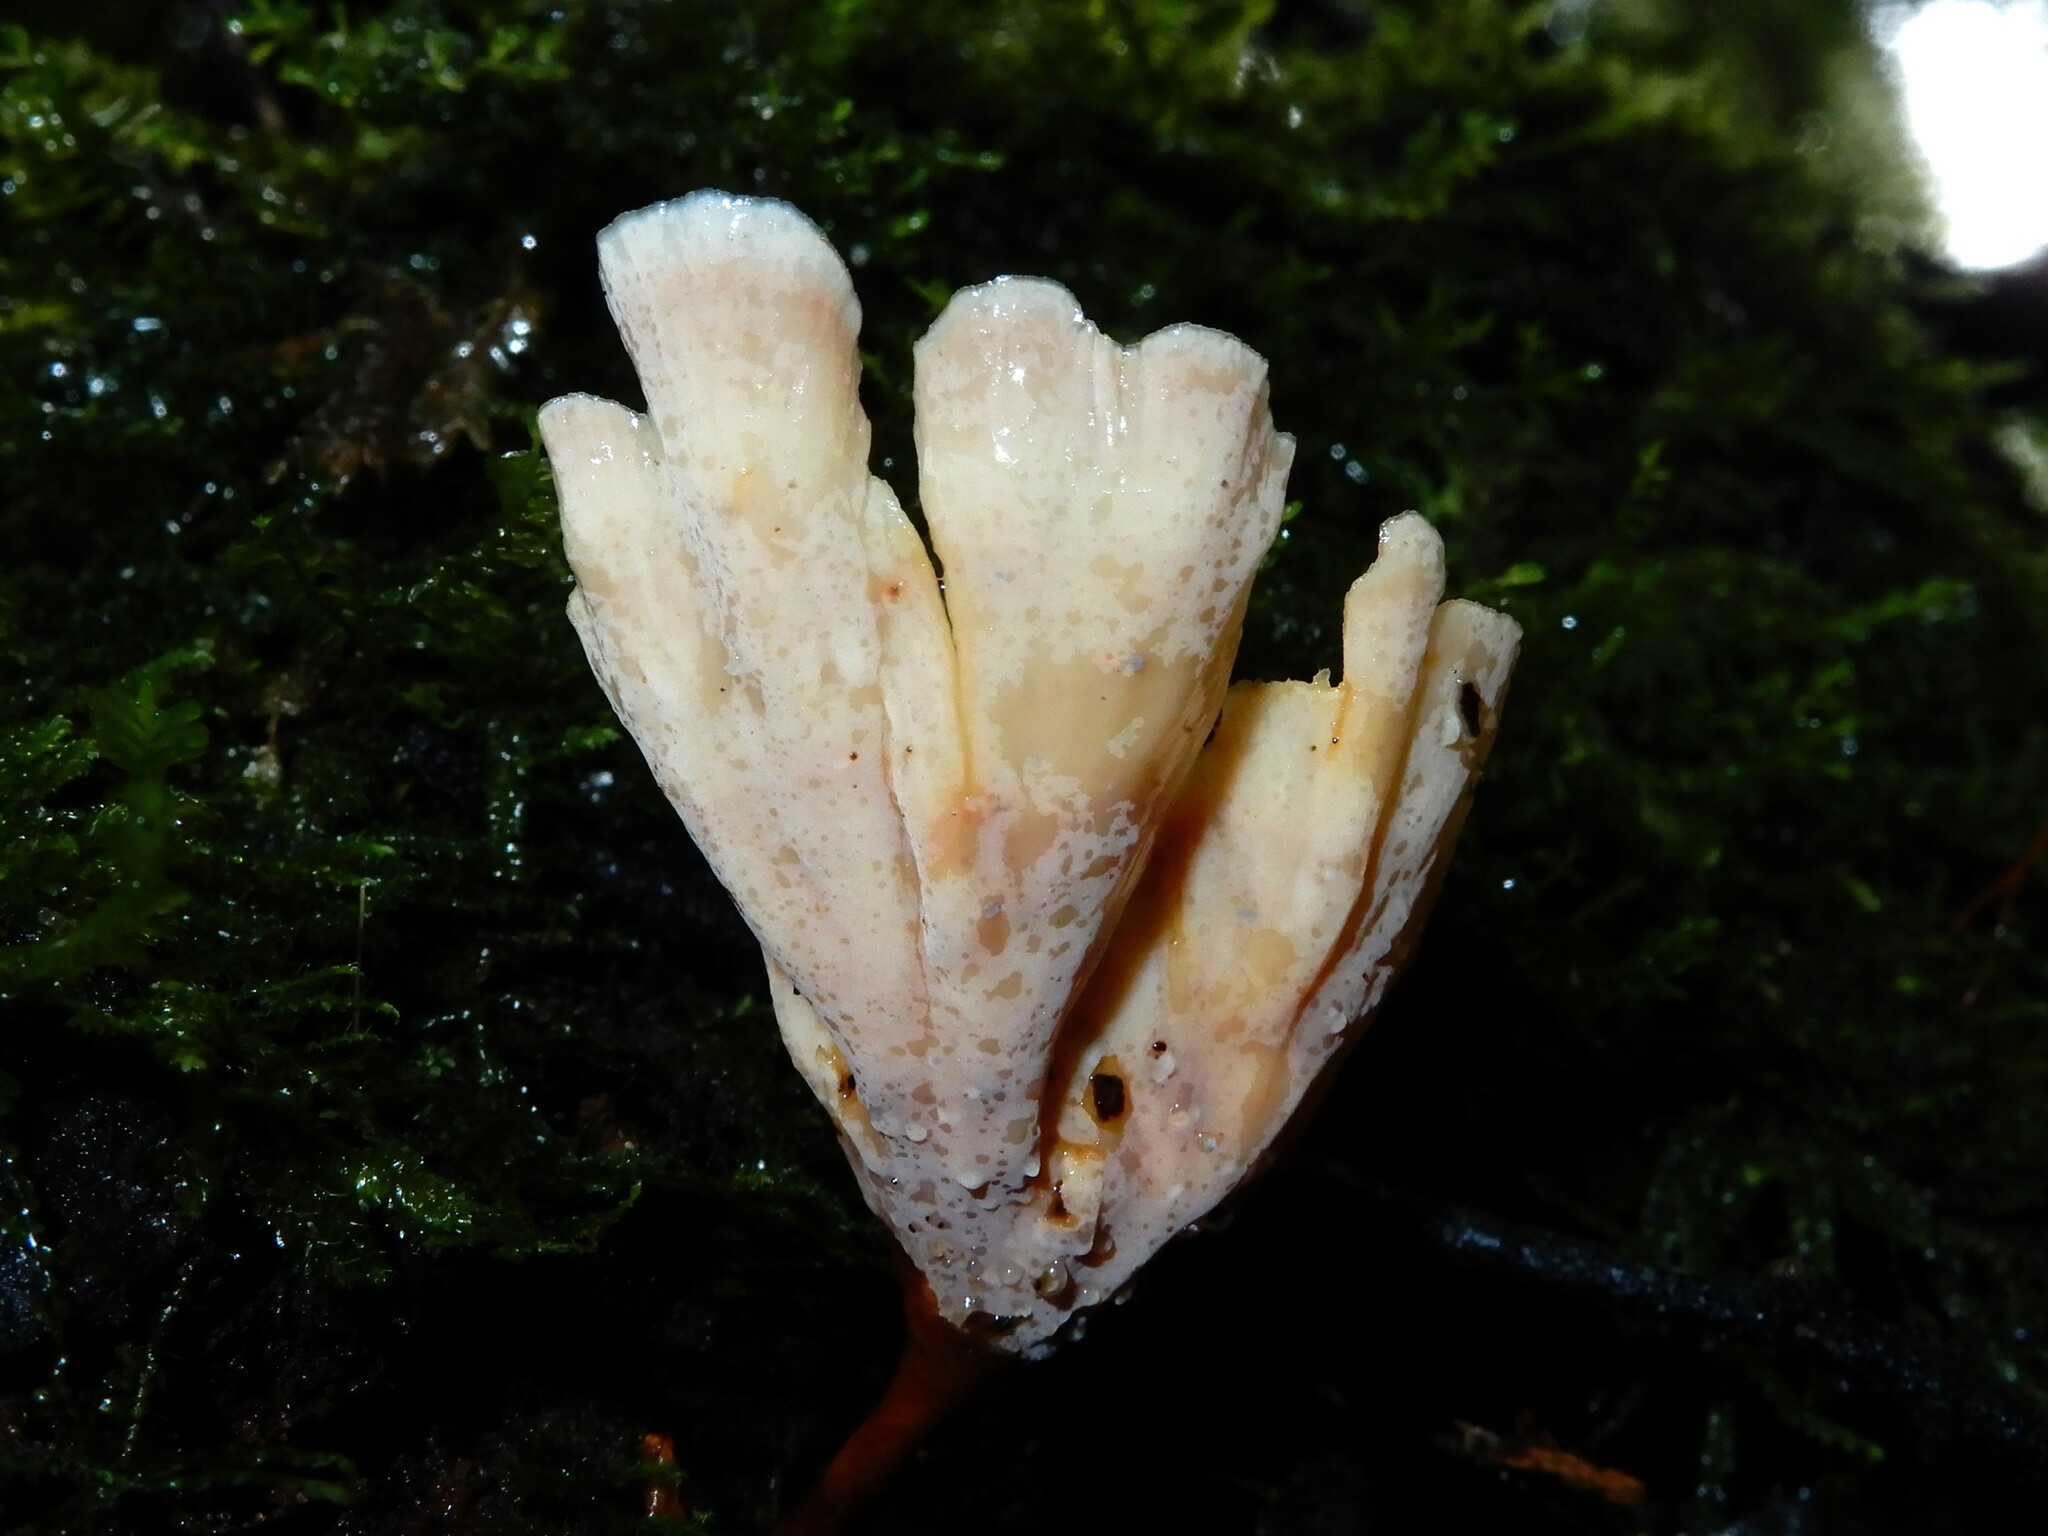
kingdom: Fungi
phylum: Basidiomycota
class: Agaricomycetes
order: Polyporales
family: Podoscyphaceae
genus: Podoscypha
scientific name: Podoscypha petalodes
